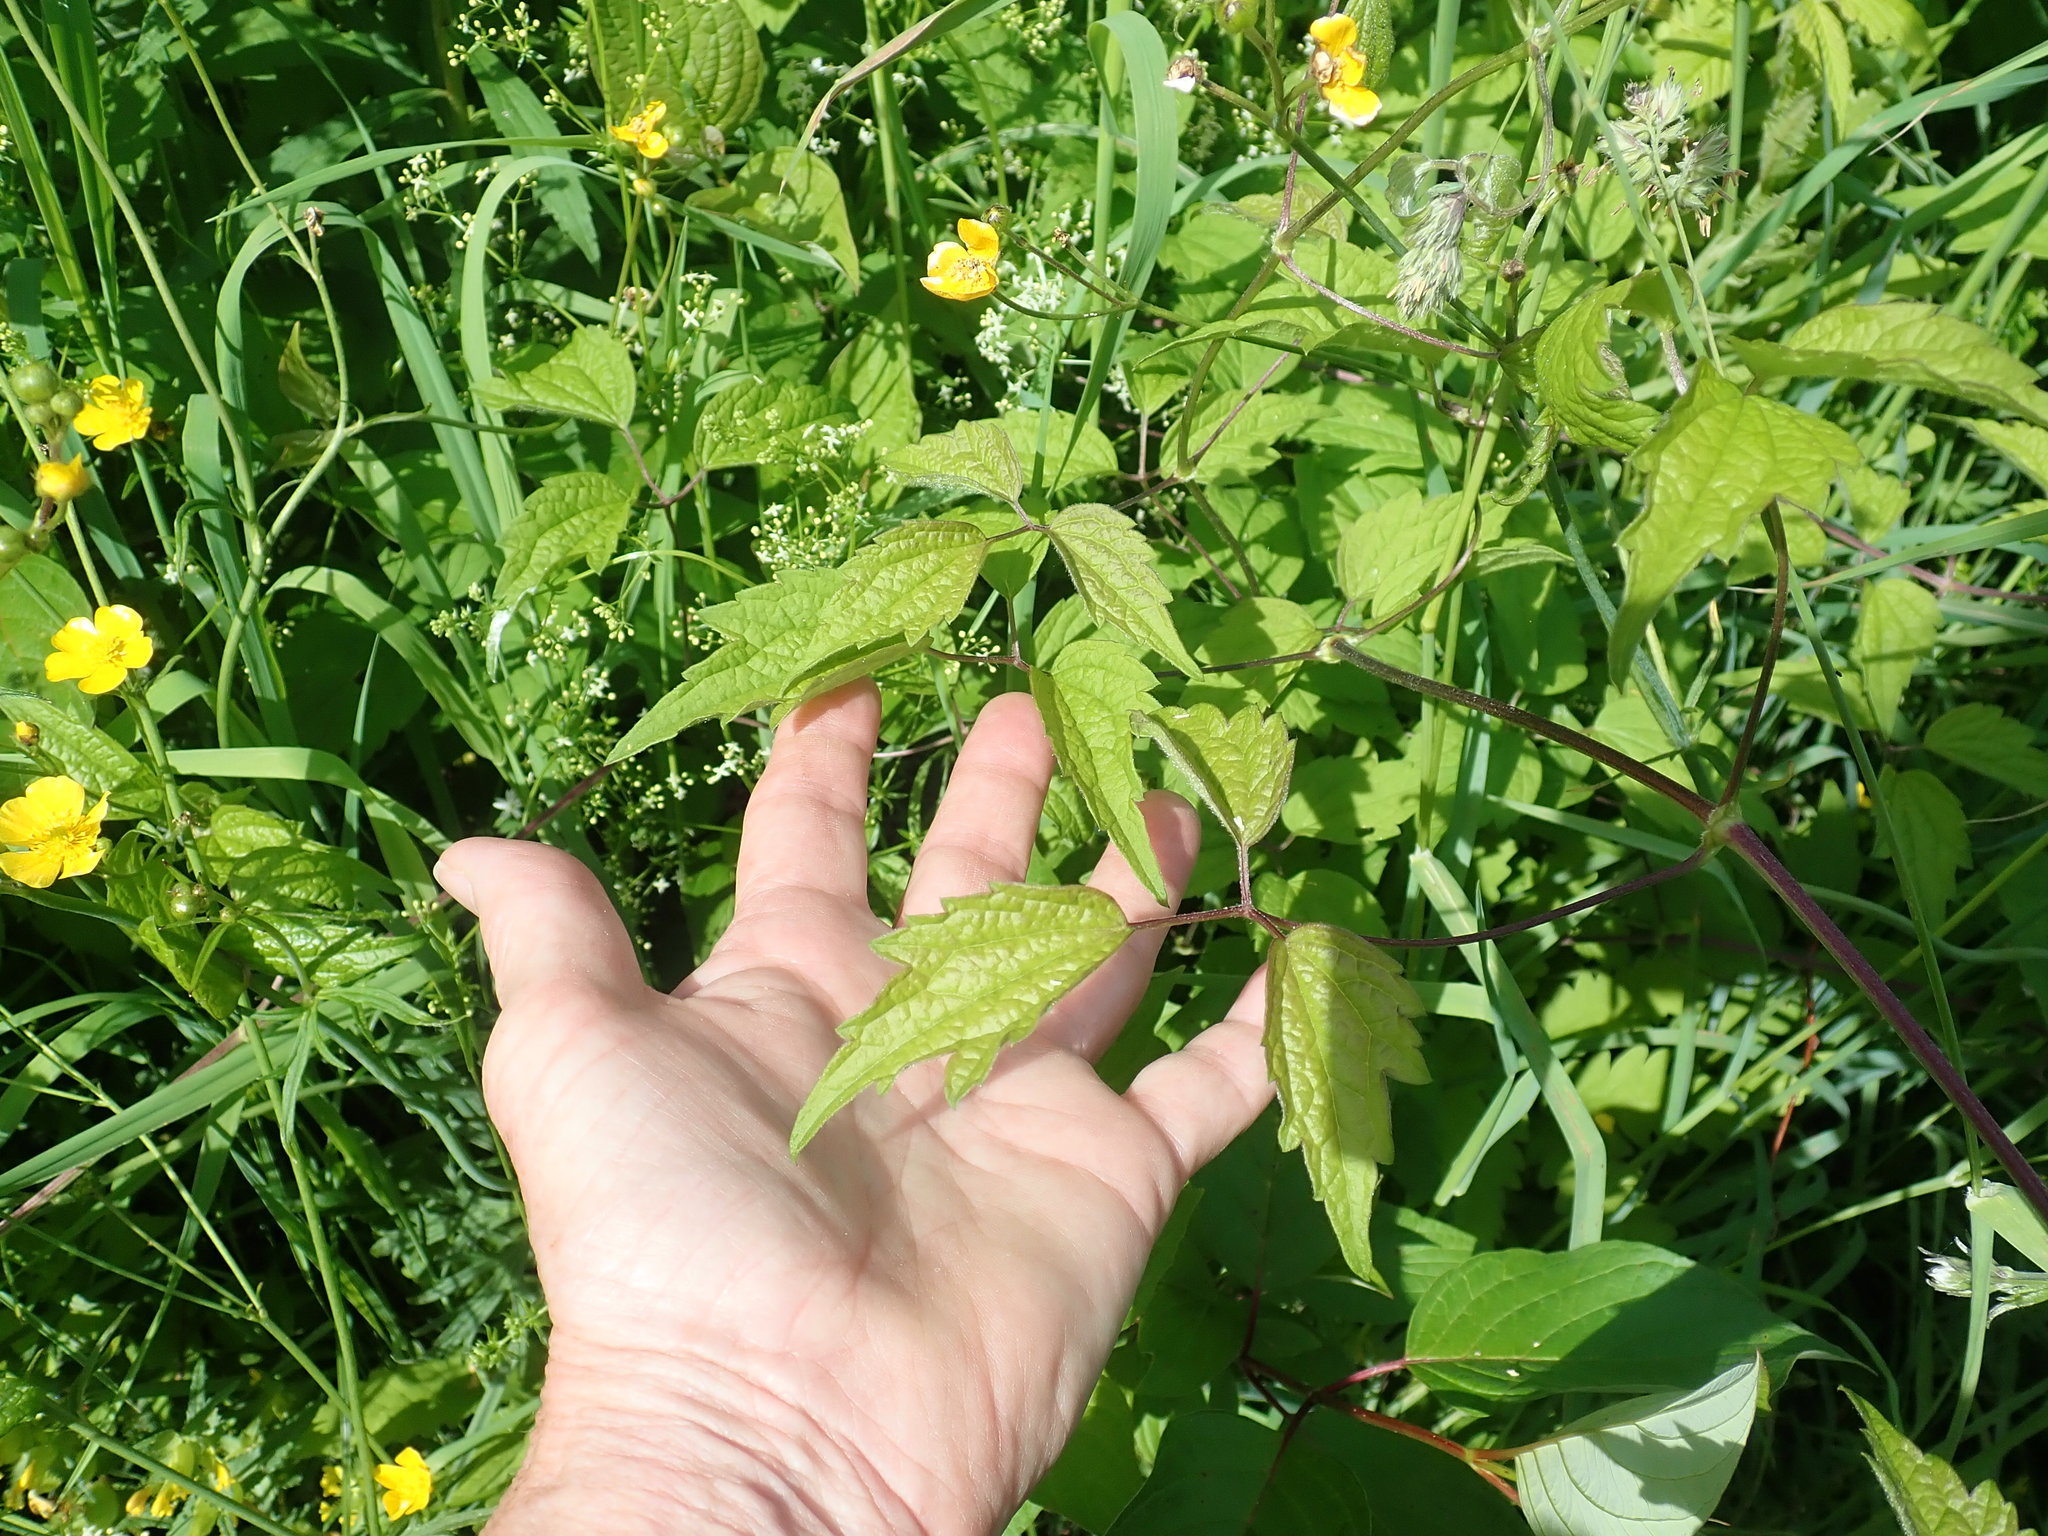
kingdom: Plantae
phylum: Tracheophyta
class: Magnoliopsida
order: Ranunculales
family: Ranunculaceae
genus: Clematis
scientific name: Clematis virginiana
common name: Virgin's-bower
